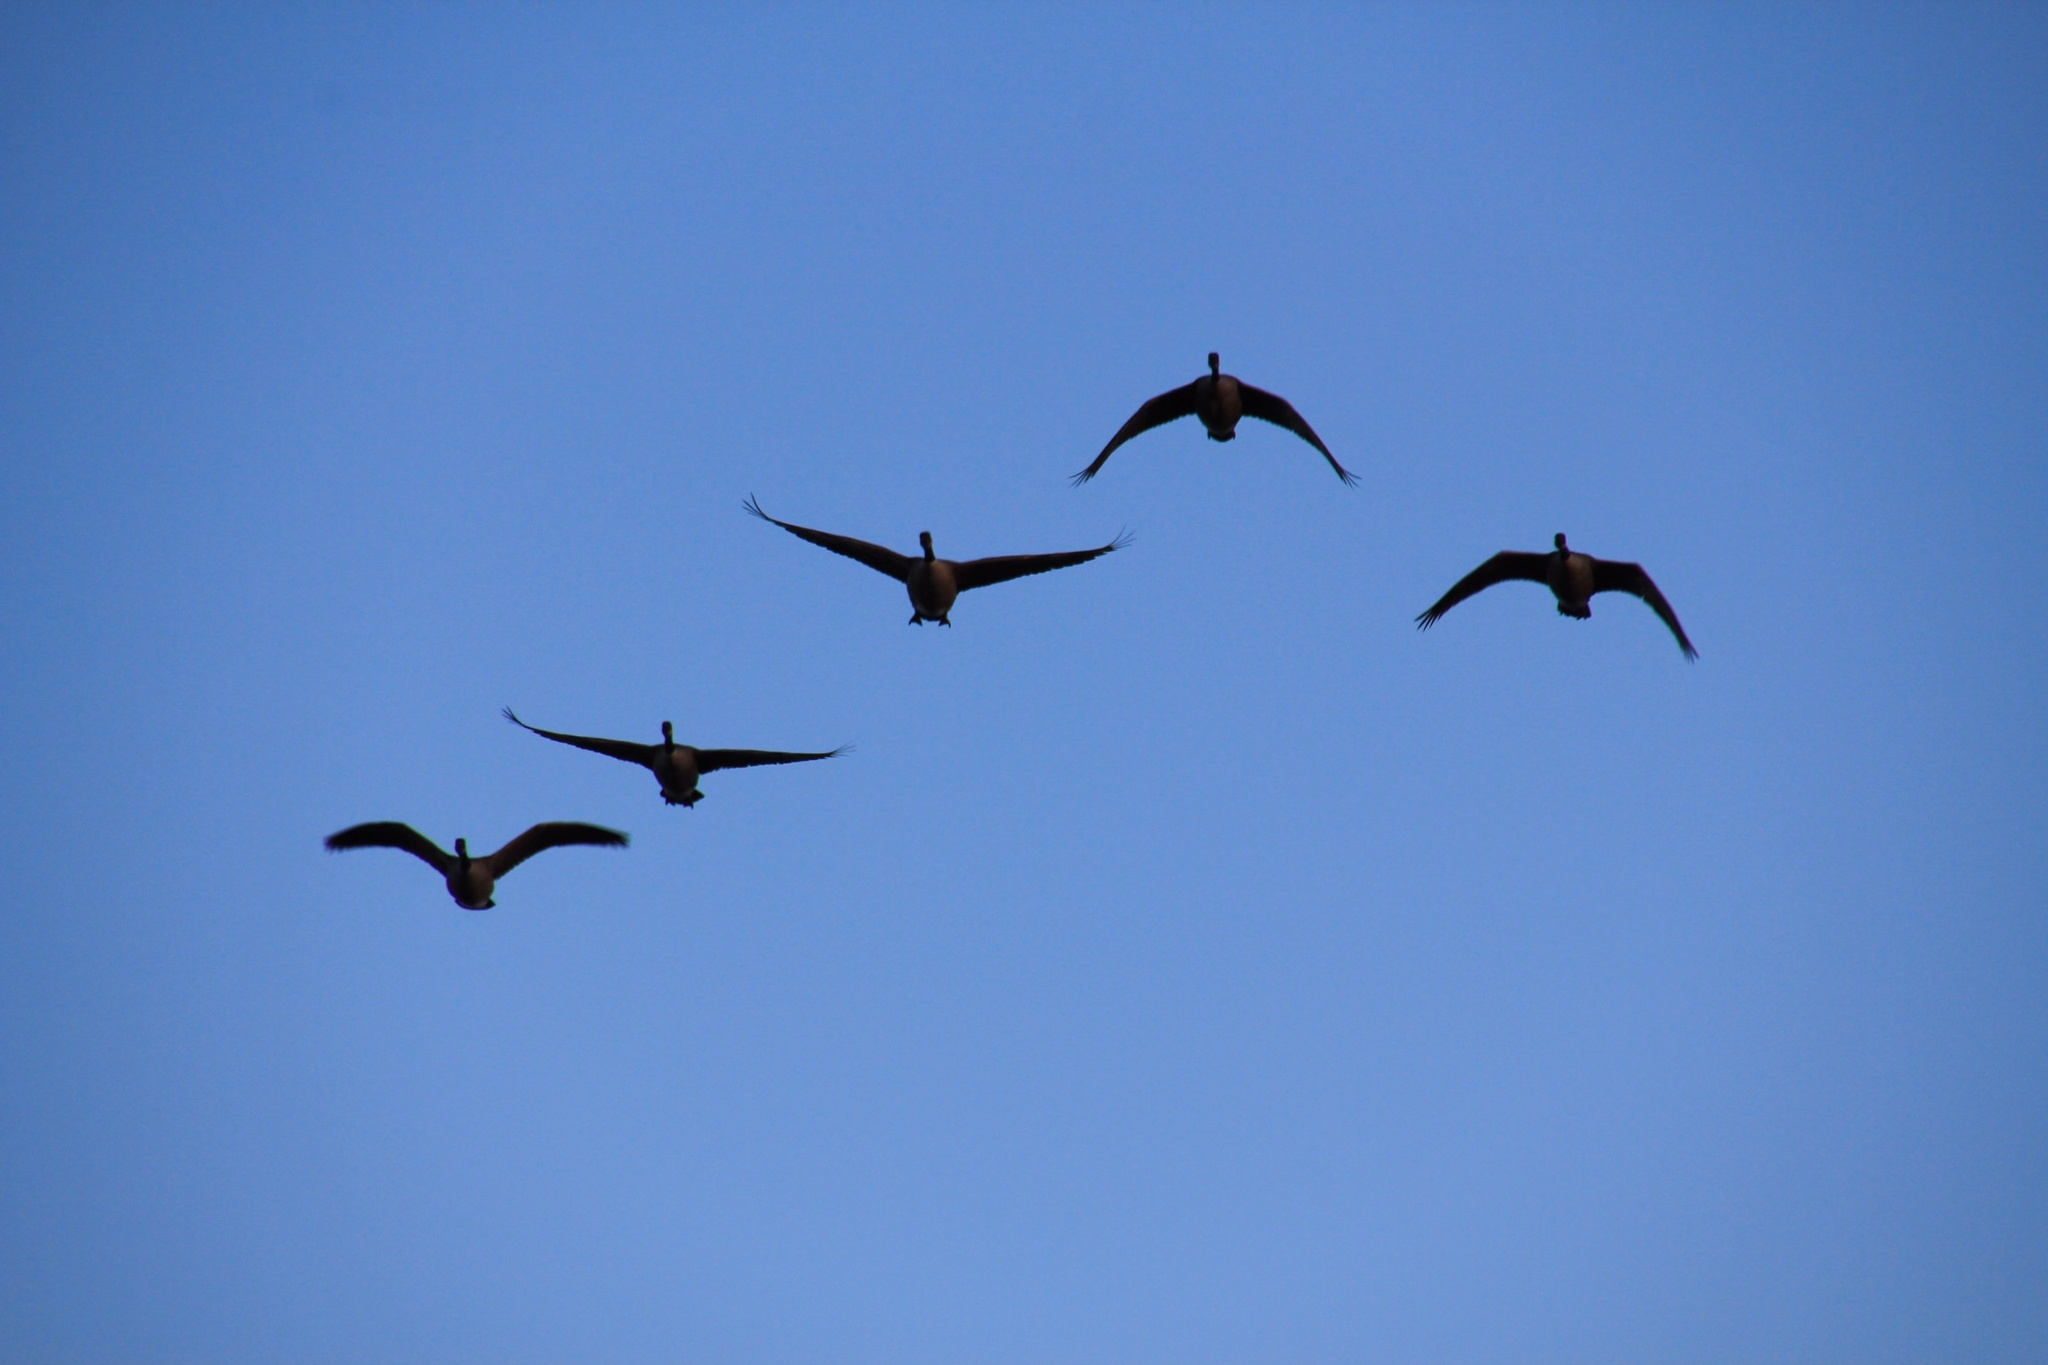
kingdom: Animalia
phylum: Chordata
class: Aves
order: Anseriformes
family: Anatidae
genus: Branta
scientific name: Branta canadensis
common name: Canada goose
